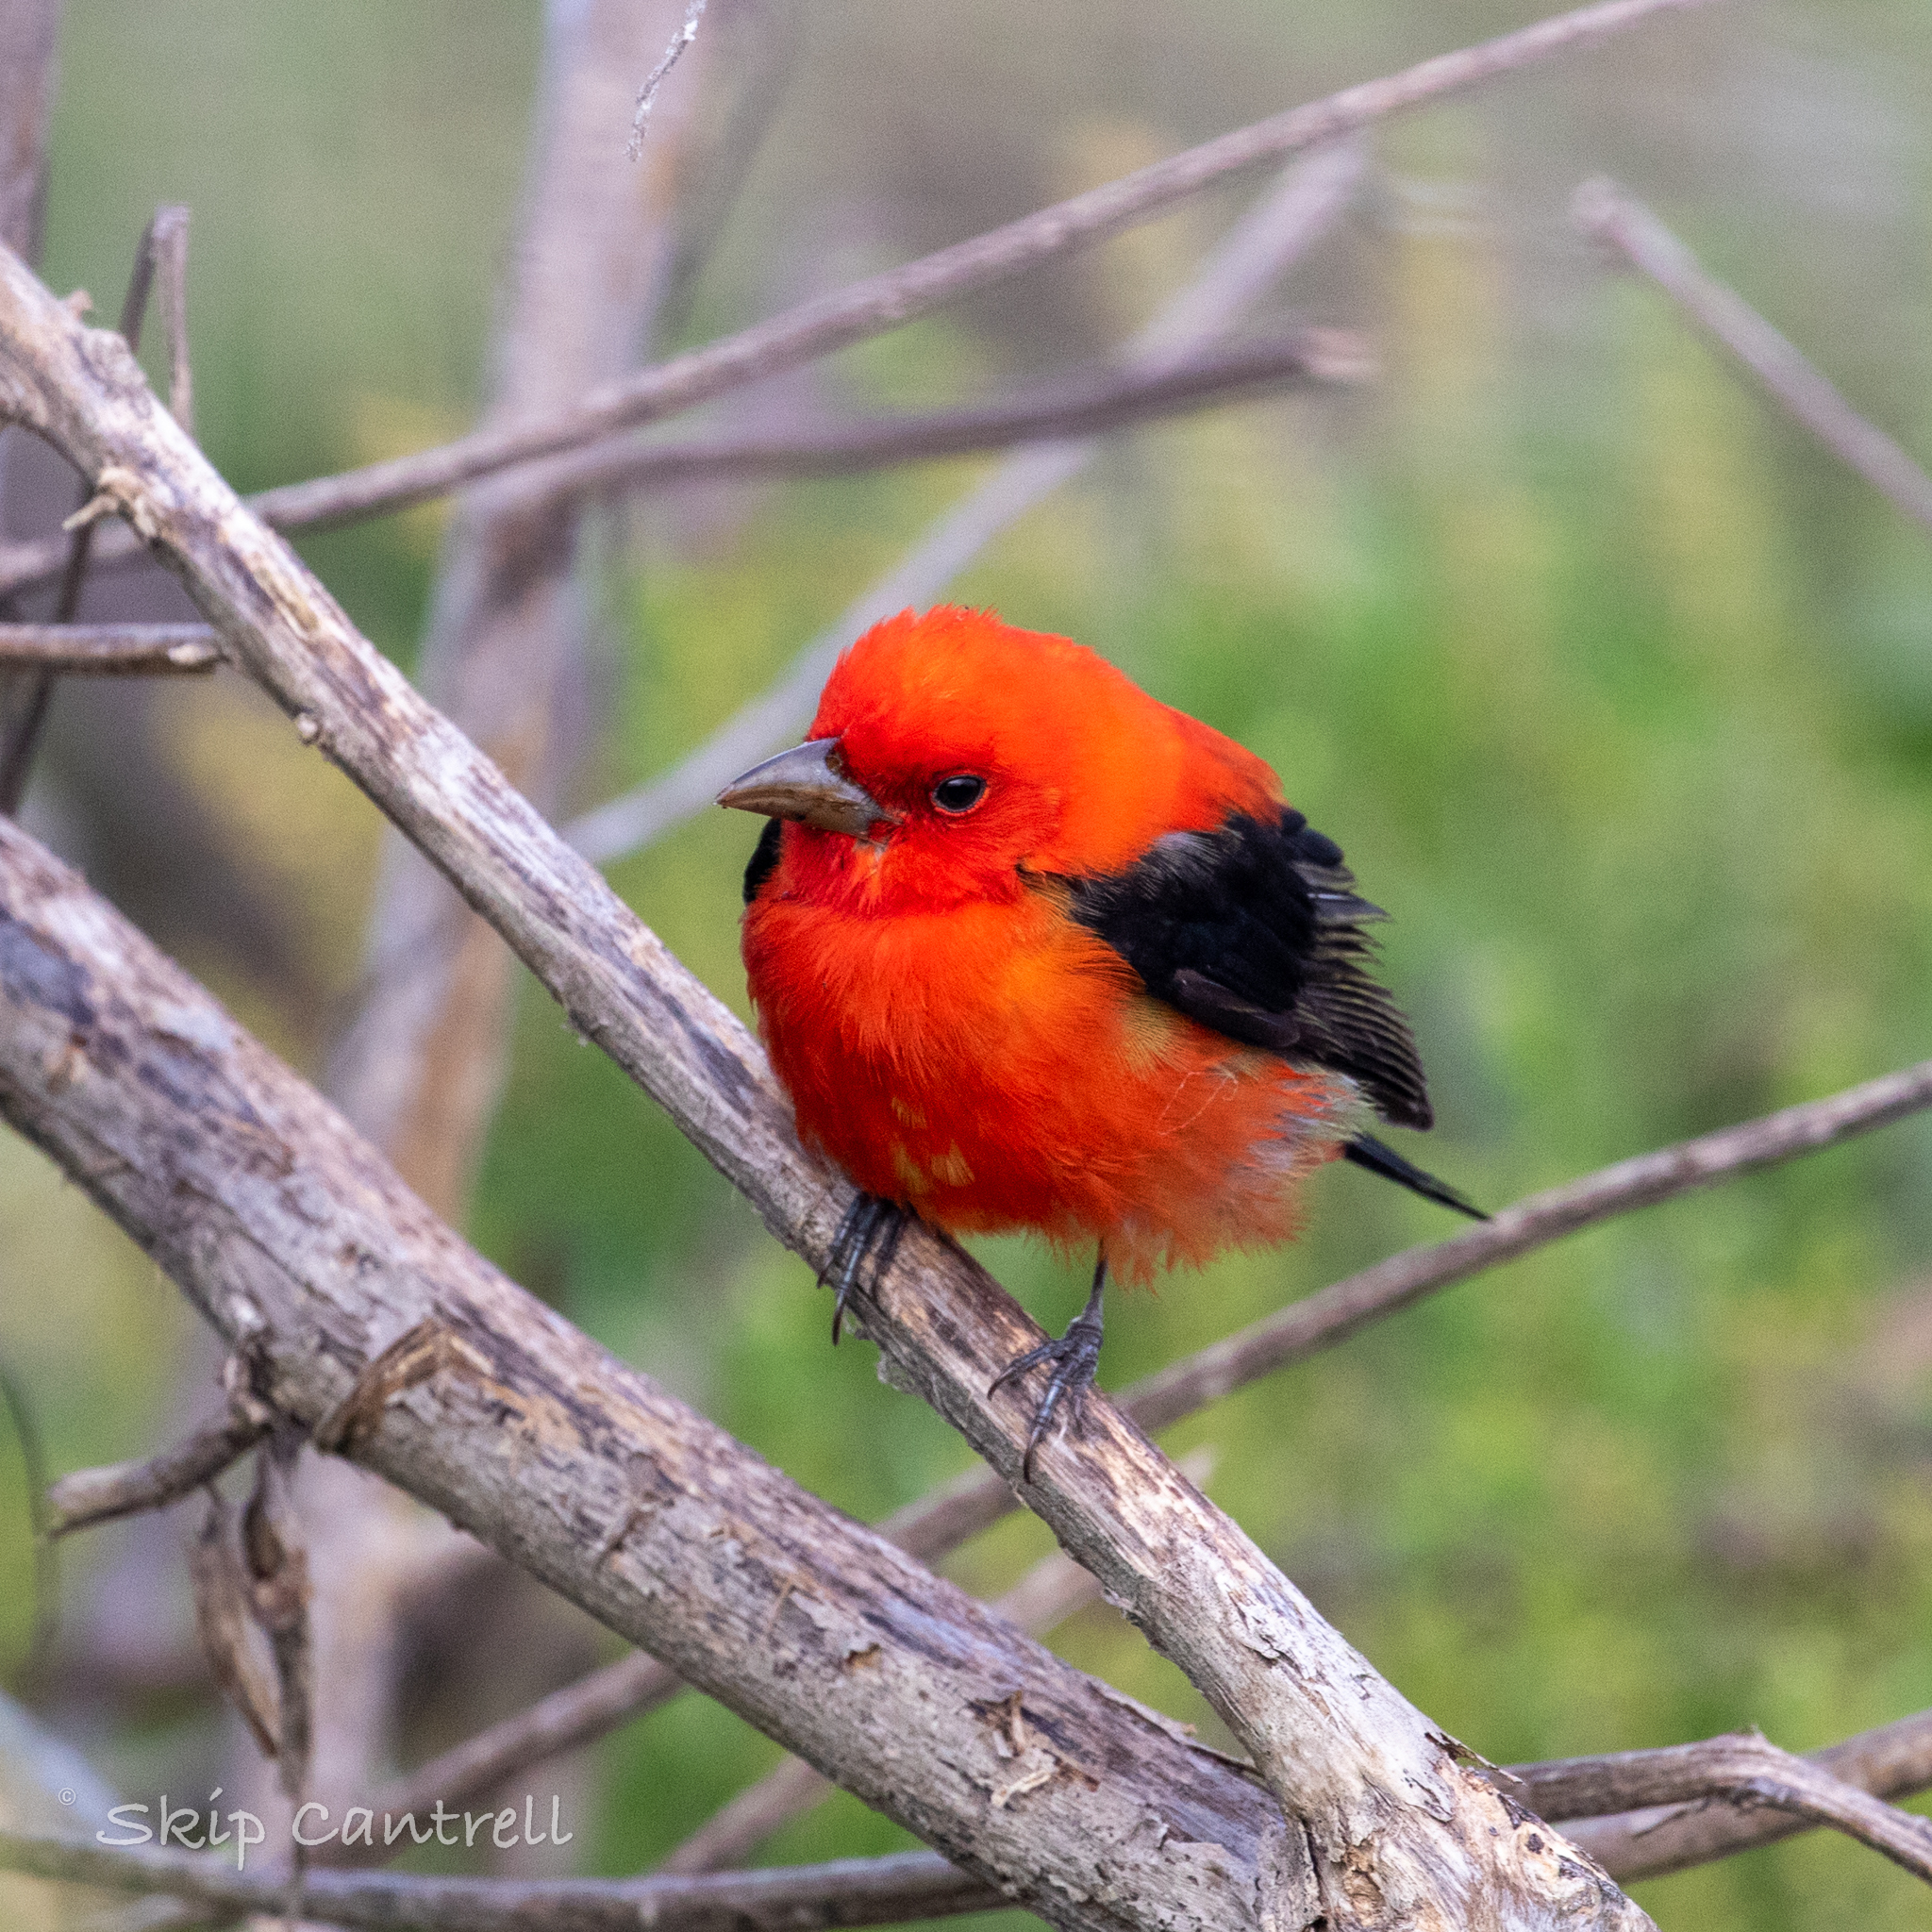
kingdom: Animalia
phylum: Chordata
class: Aves
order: Passeriformes
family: Cardinalidae
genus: Piranga
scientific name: Piranga olivacea
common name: Scarlet tanager
